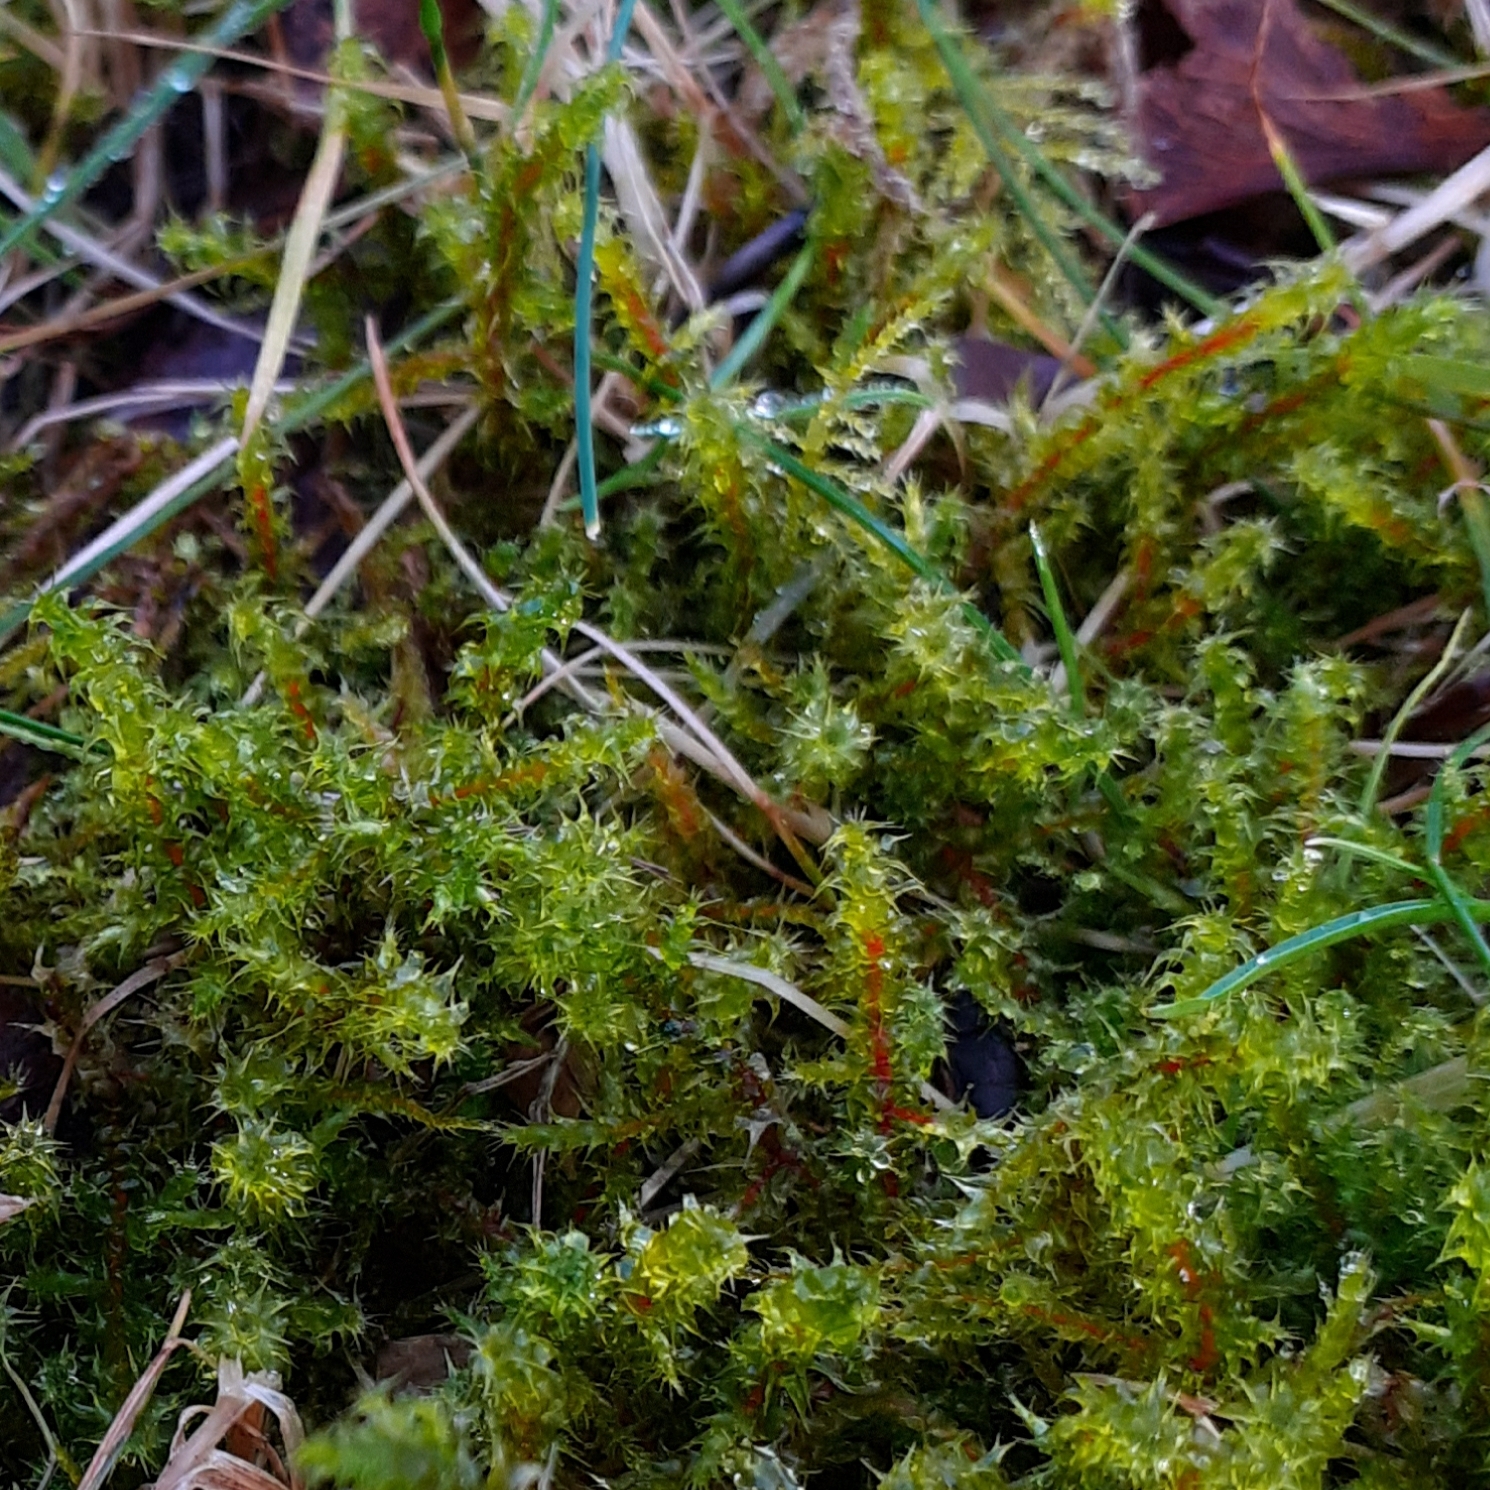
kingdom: Plantae
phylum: Bryophyta
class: Bryopsida
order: Hypnales
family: Hylocomiaceae
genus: Rhytidiadelphus
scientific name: Rhytidiadelphus squarrosus
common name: Springy turf-moss
